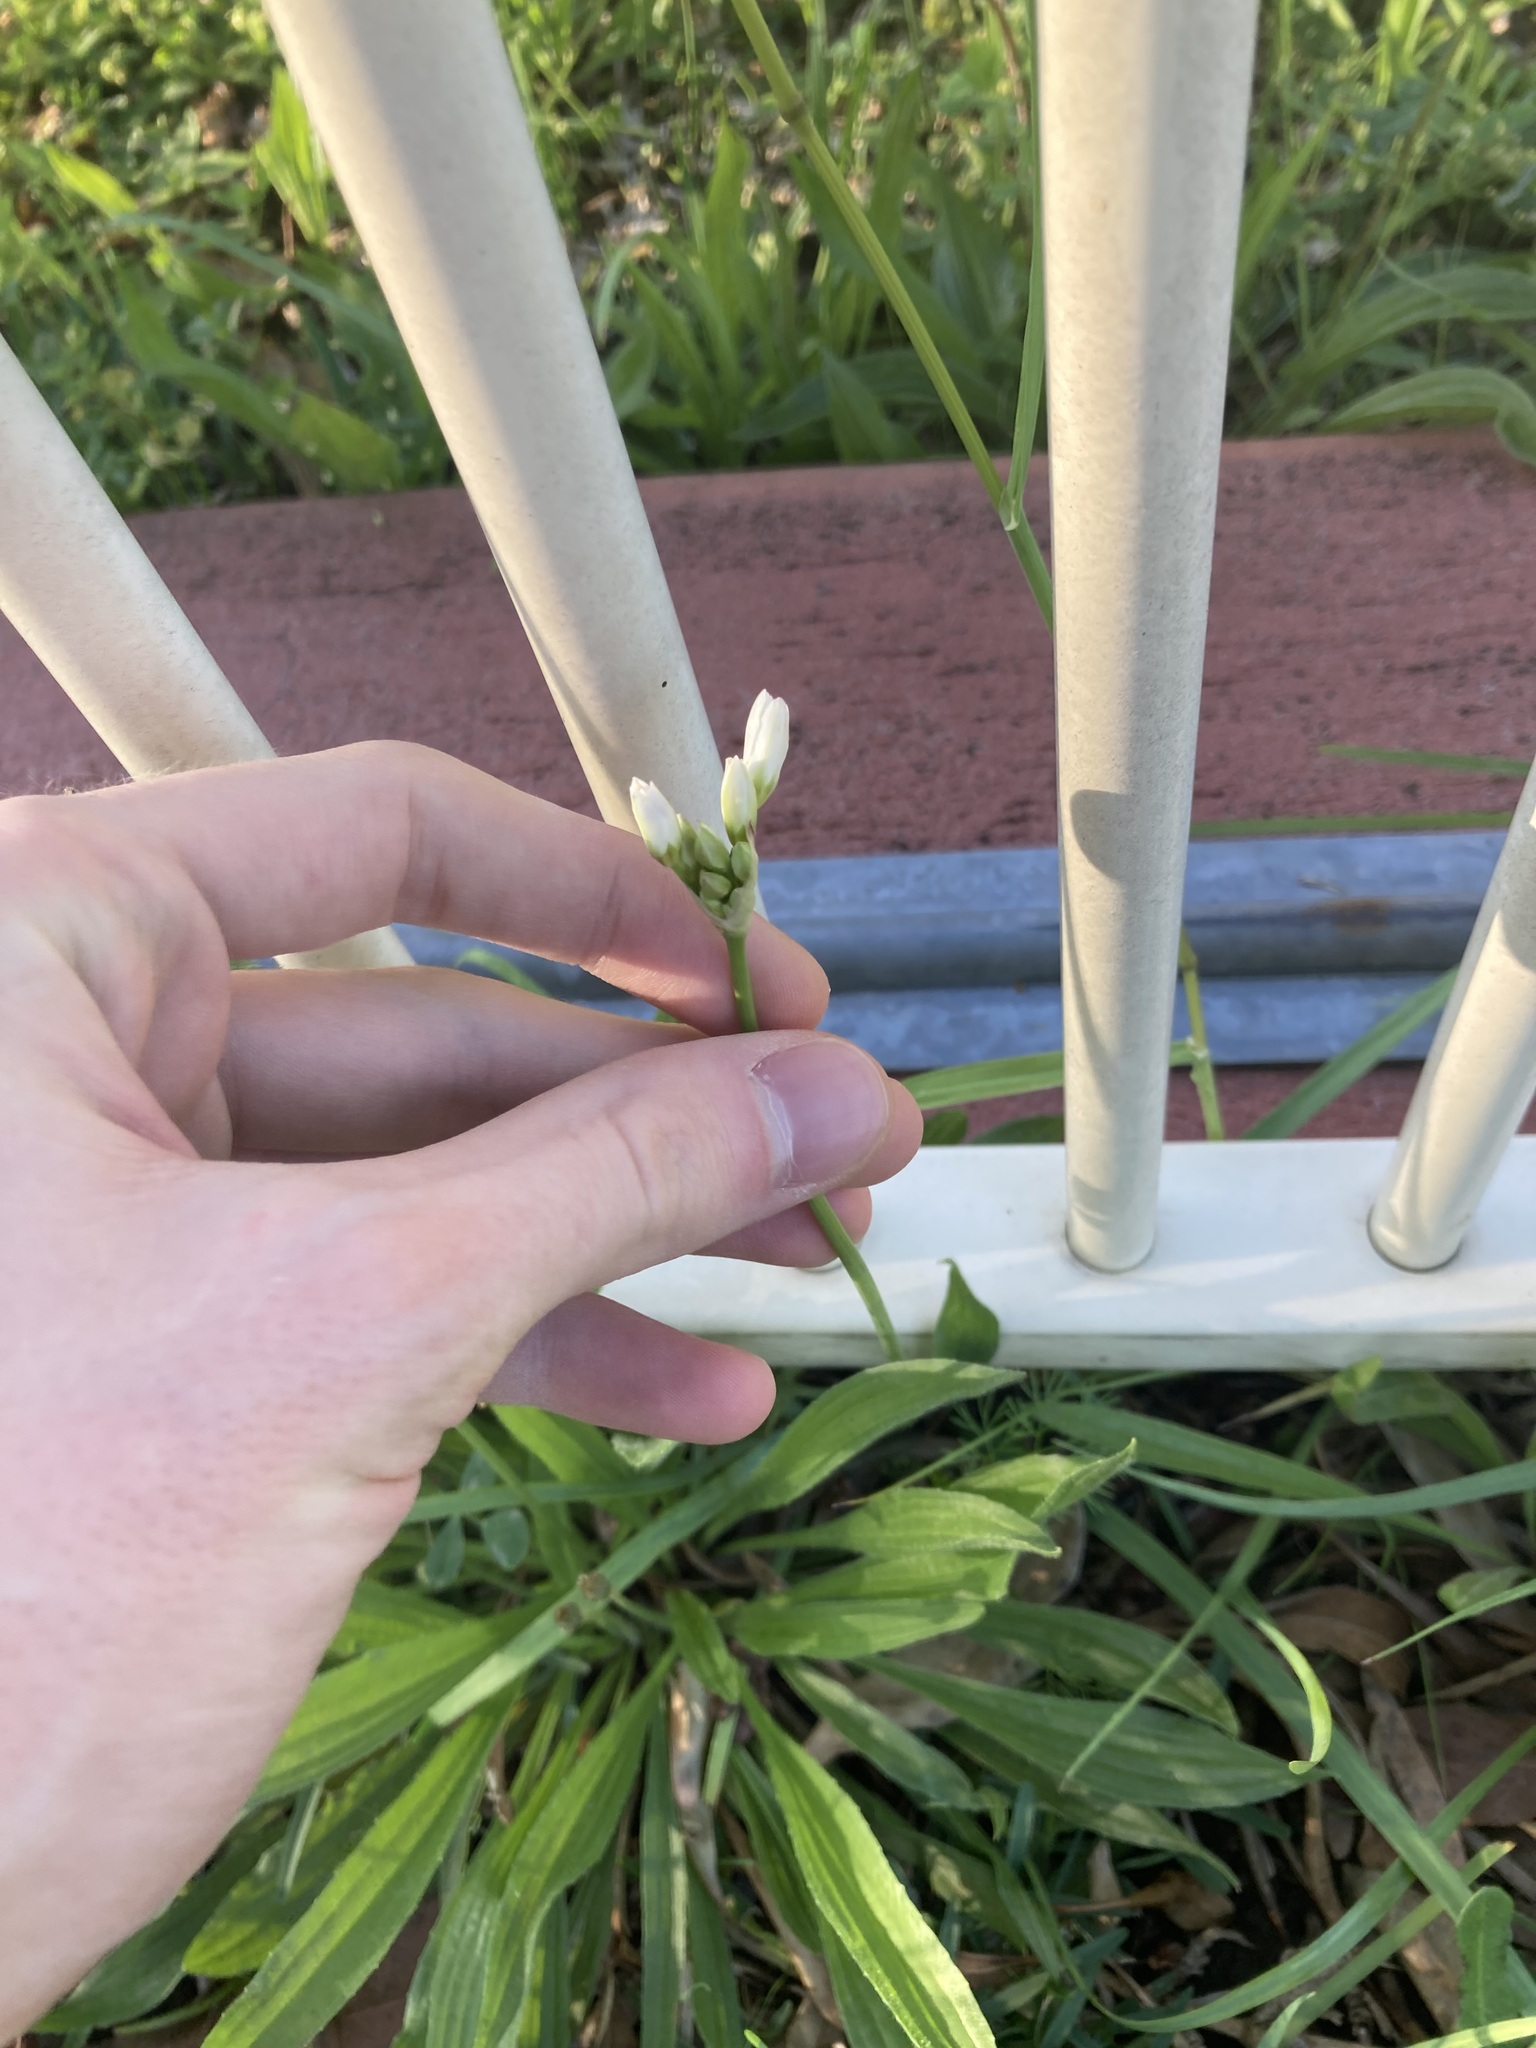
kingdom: Plantae
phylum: Tracheophyta
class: Liliopsida
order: Asparagales
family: Amaryllidaceae
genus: Nothoscordum
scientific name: Nothoscordum gracile
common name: Slender false garlic
